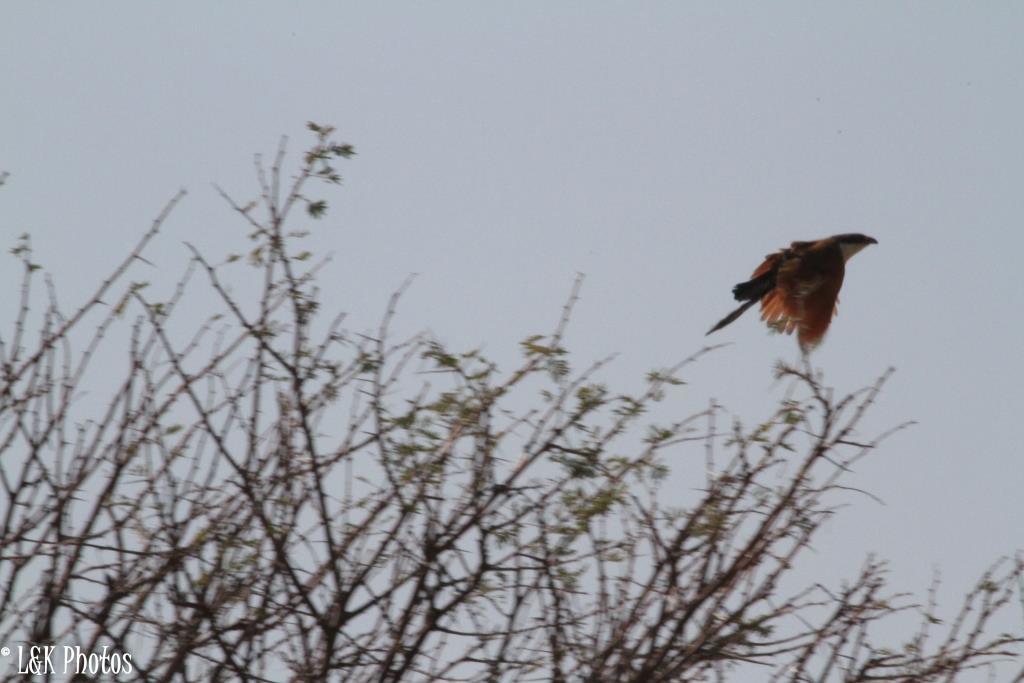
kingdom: Animalia
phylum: Chordata
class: Aves
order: Cuculiformes
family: Cuculidae
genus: Centropus
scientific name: Centropus cupreicaudus
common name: Coppery-tailed coucal
